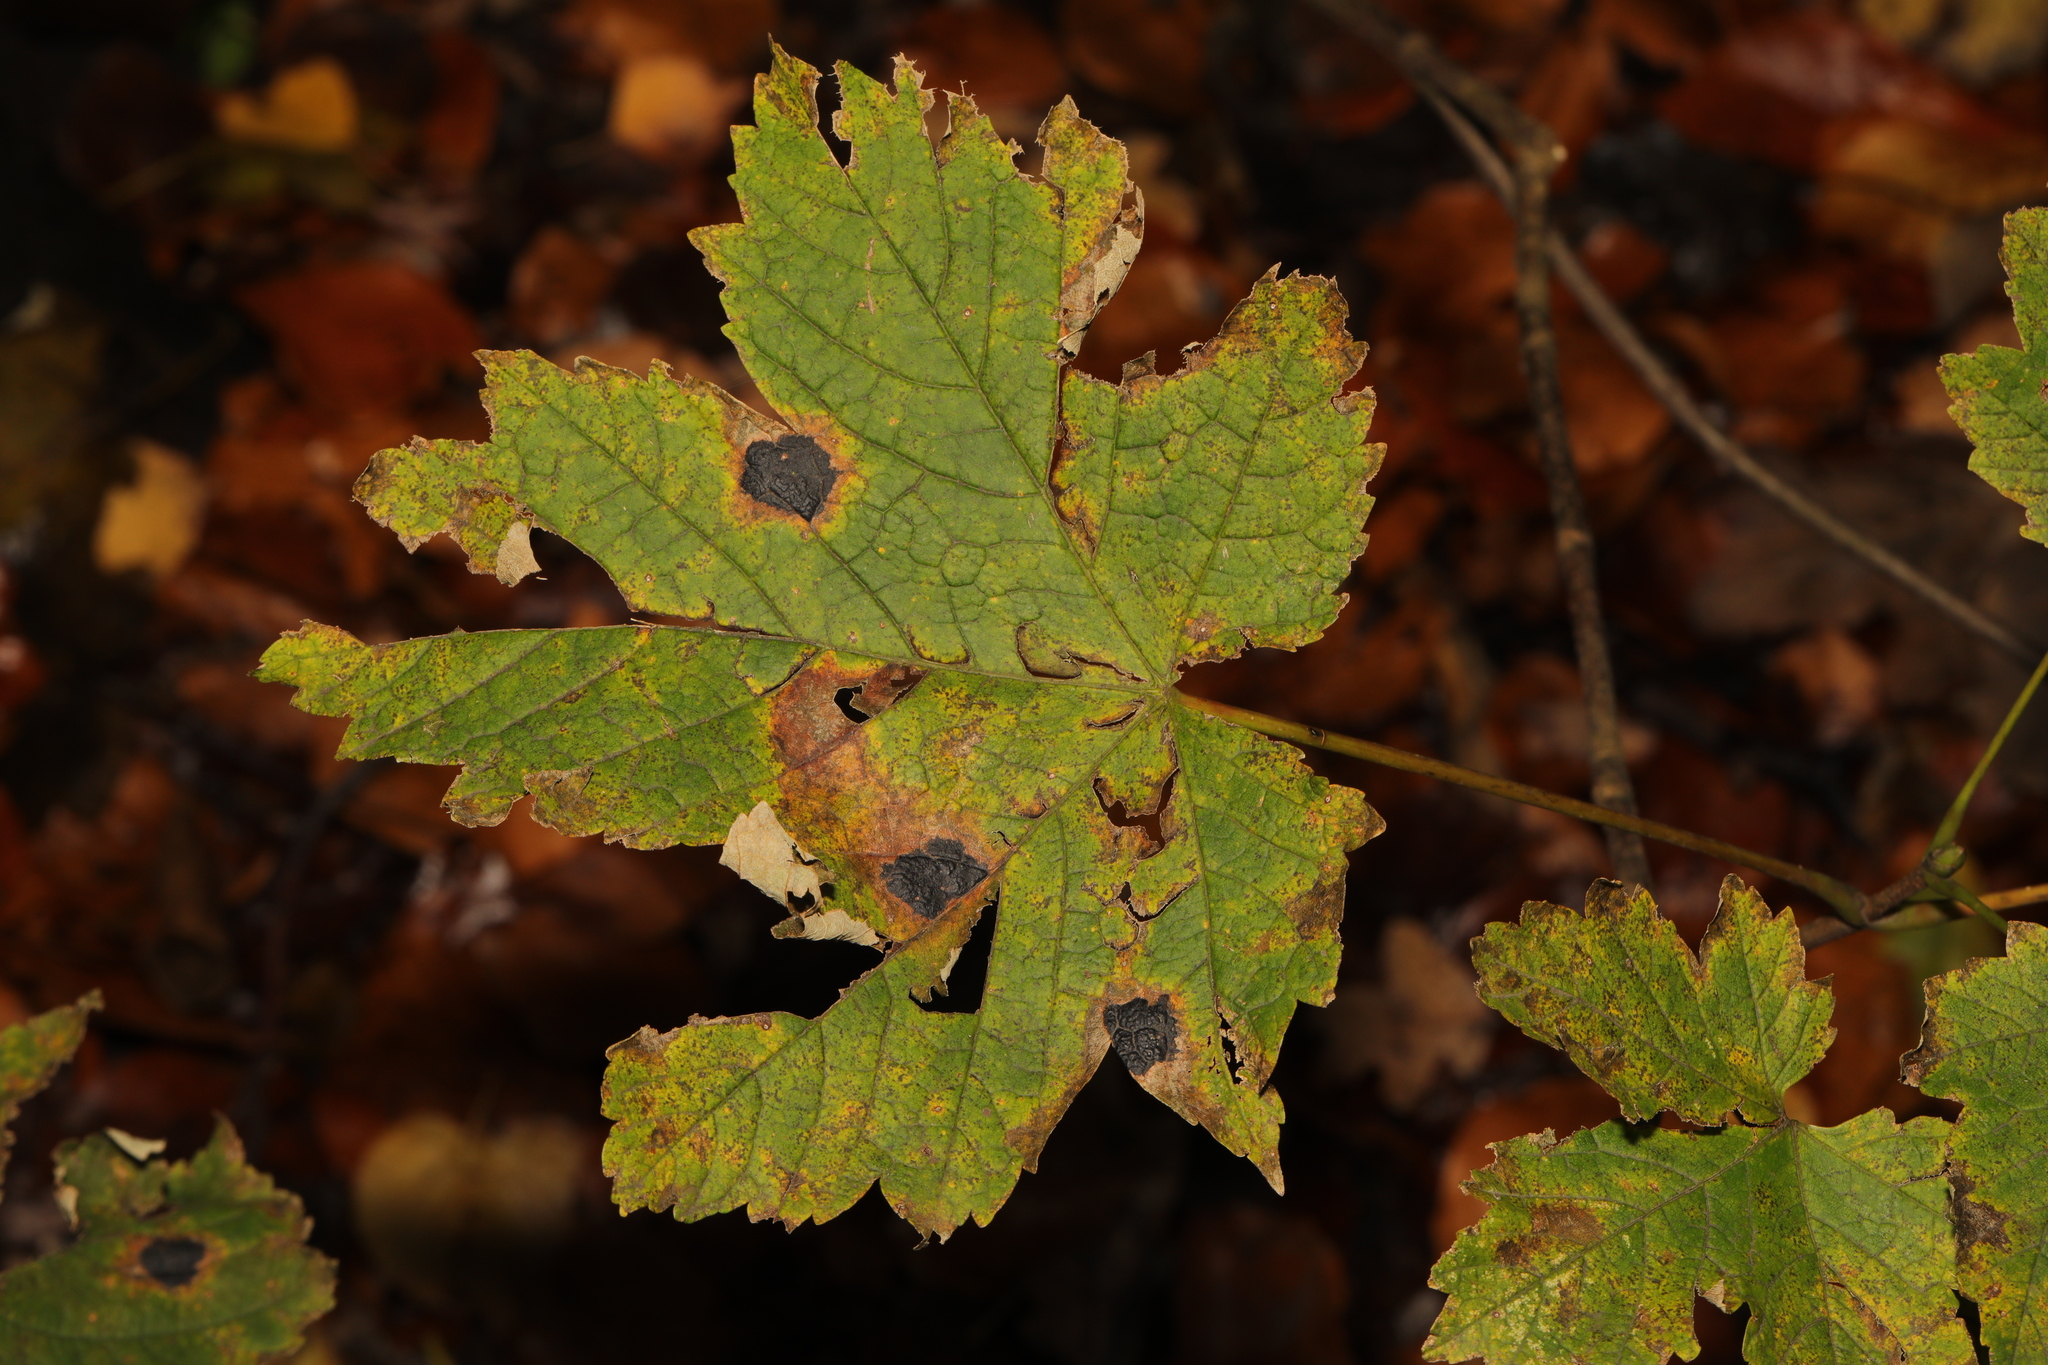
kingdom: Plantae
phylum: Tracheophyta
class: Magnoliopsida
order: Sapindales
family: Sapindaceae
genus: Acer
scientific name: Acer pseudoplatanus
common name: Sycamore
